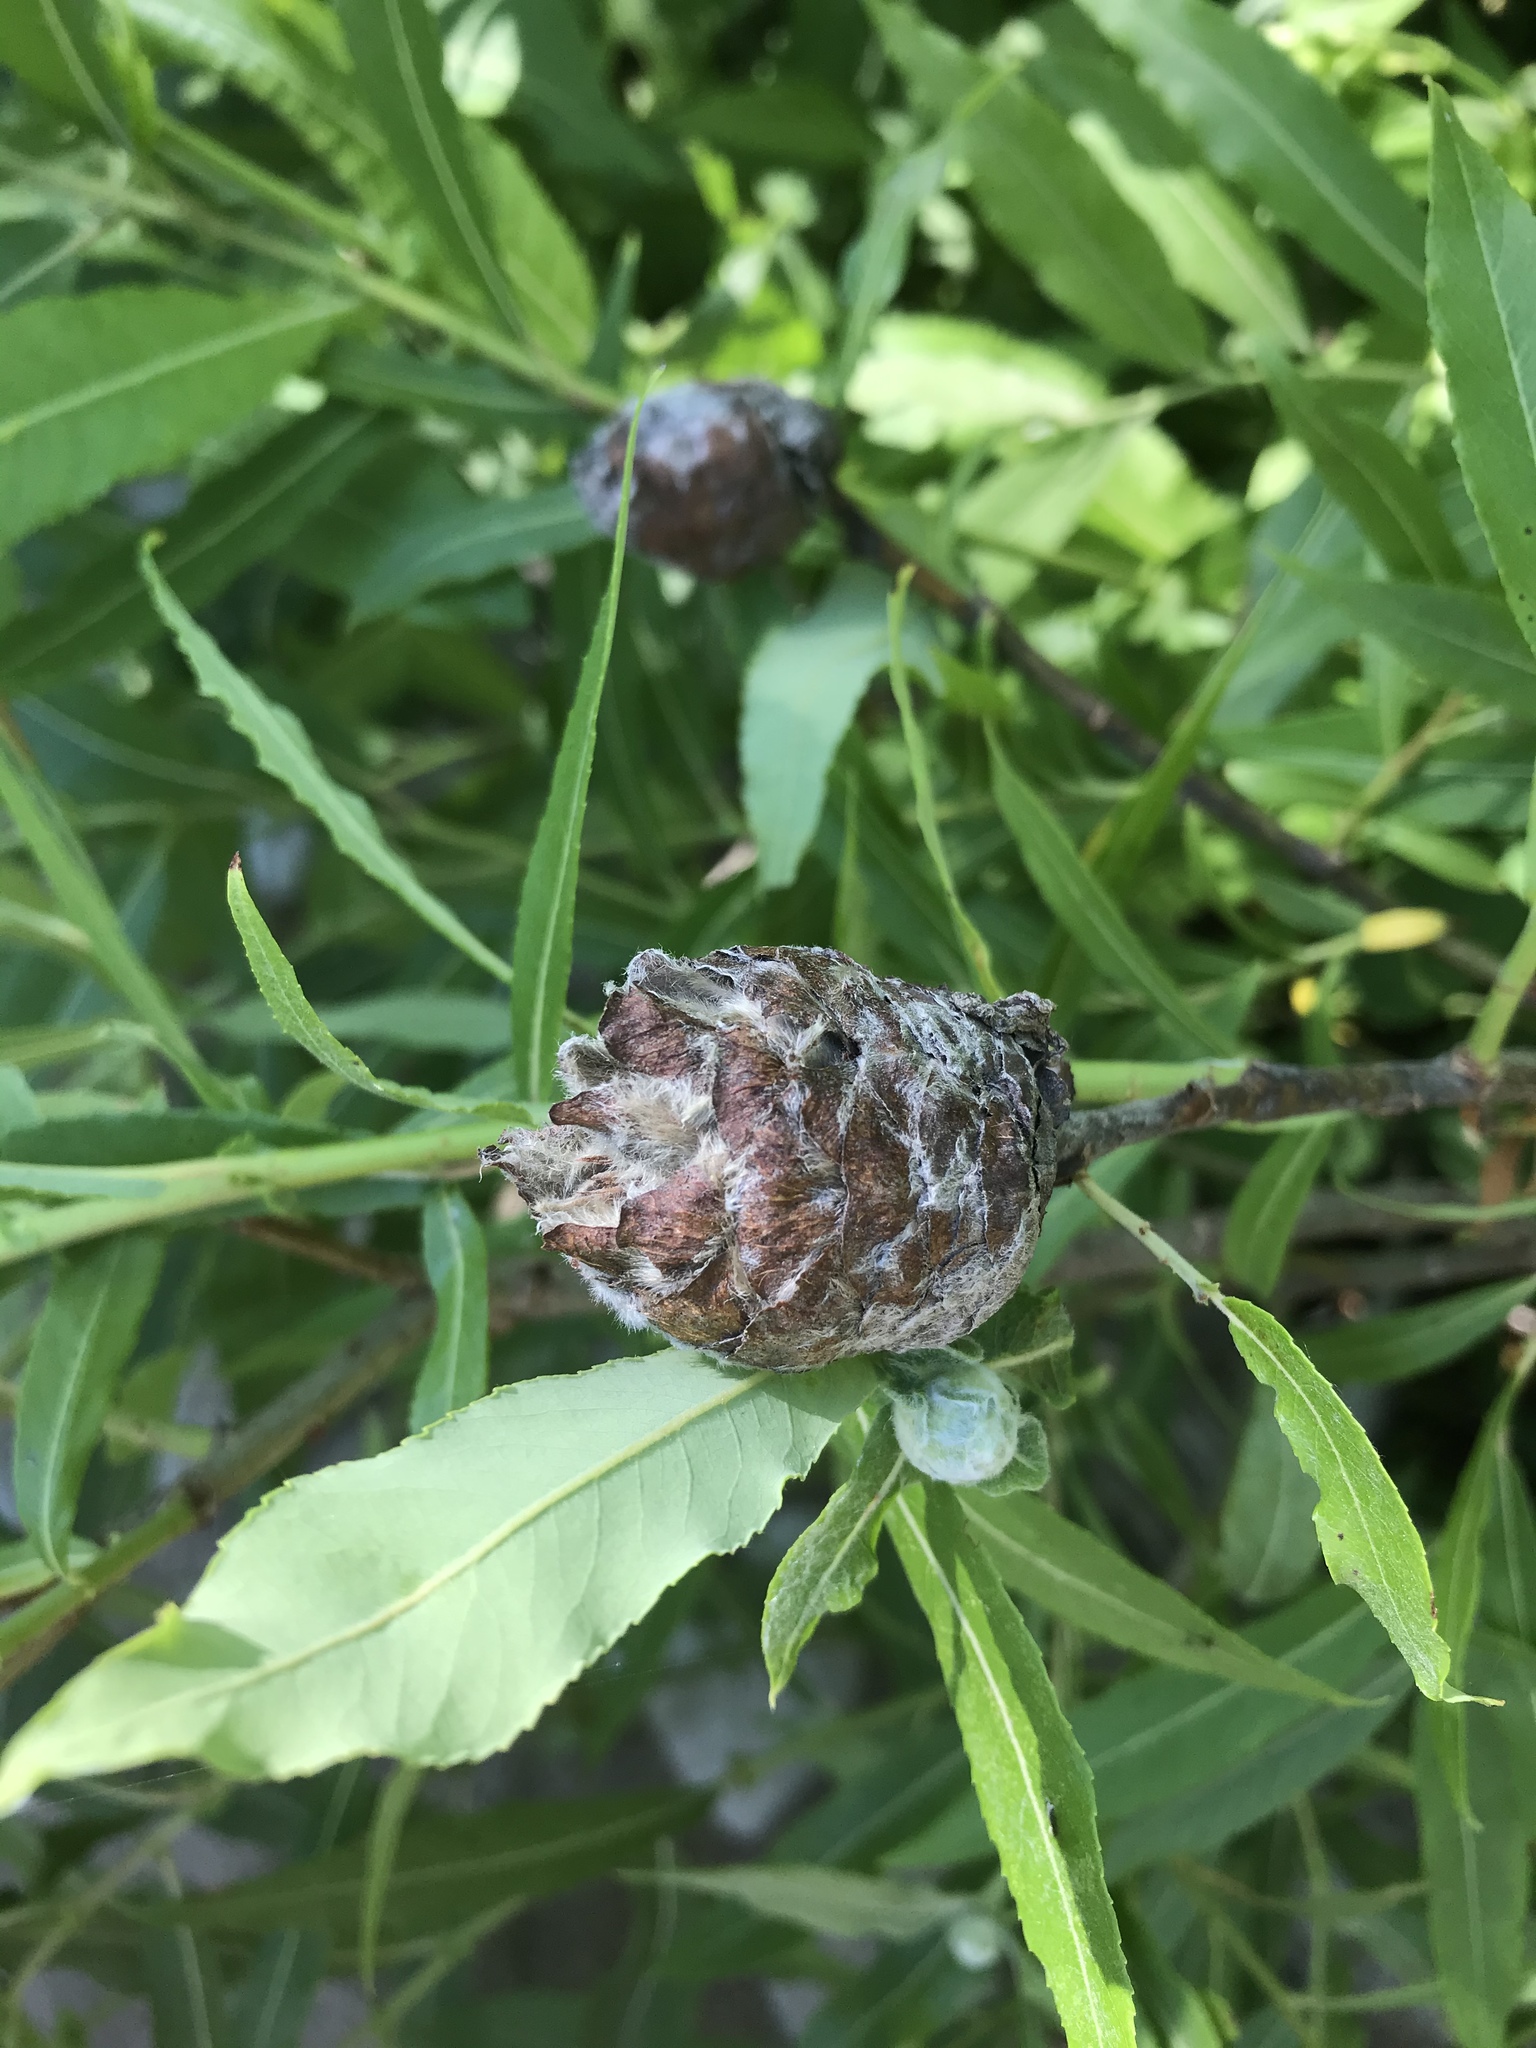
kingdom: Animalia
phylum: Arthropoda
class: Insecta
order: Diptera
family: Cecidomyiidae
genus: Rabdophaga
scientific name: Rabdophaga strobiloides
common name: Willow pinecone gall midge
